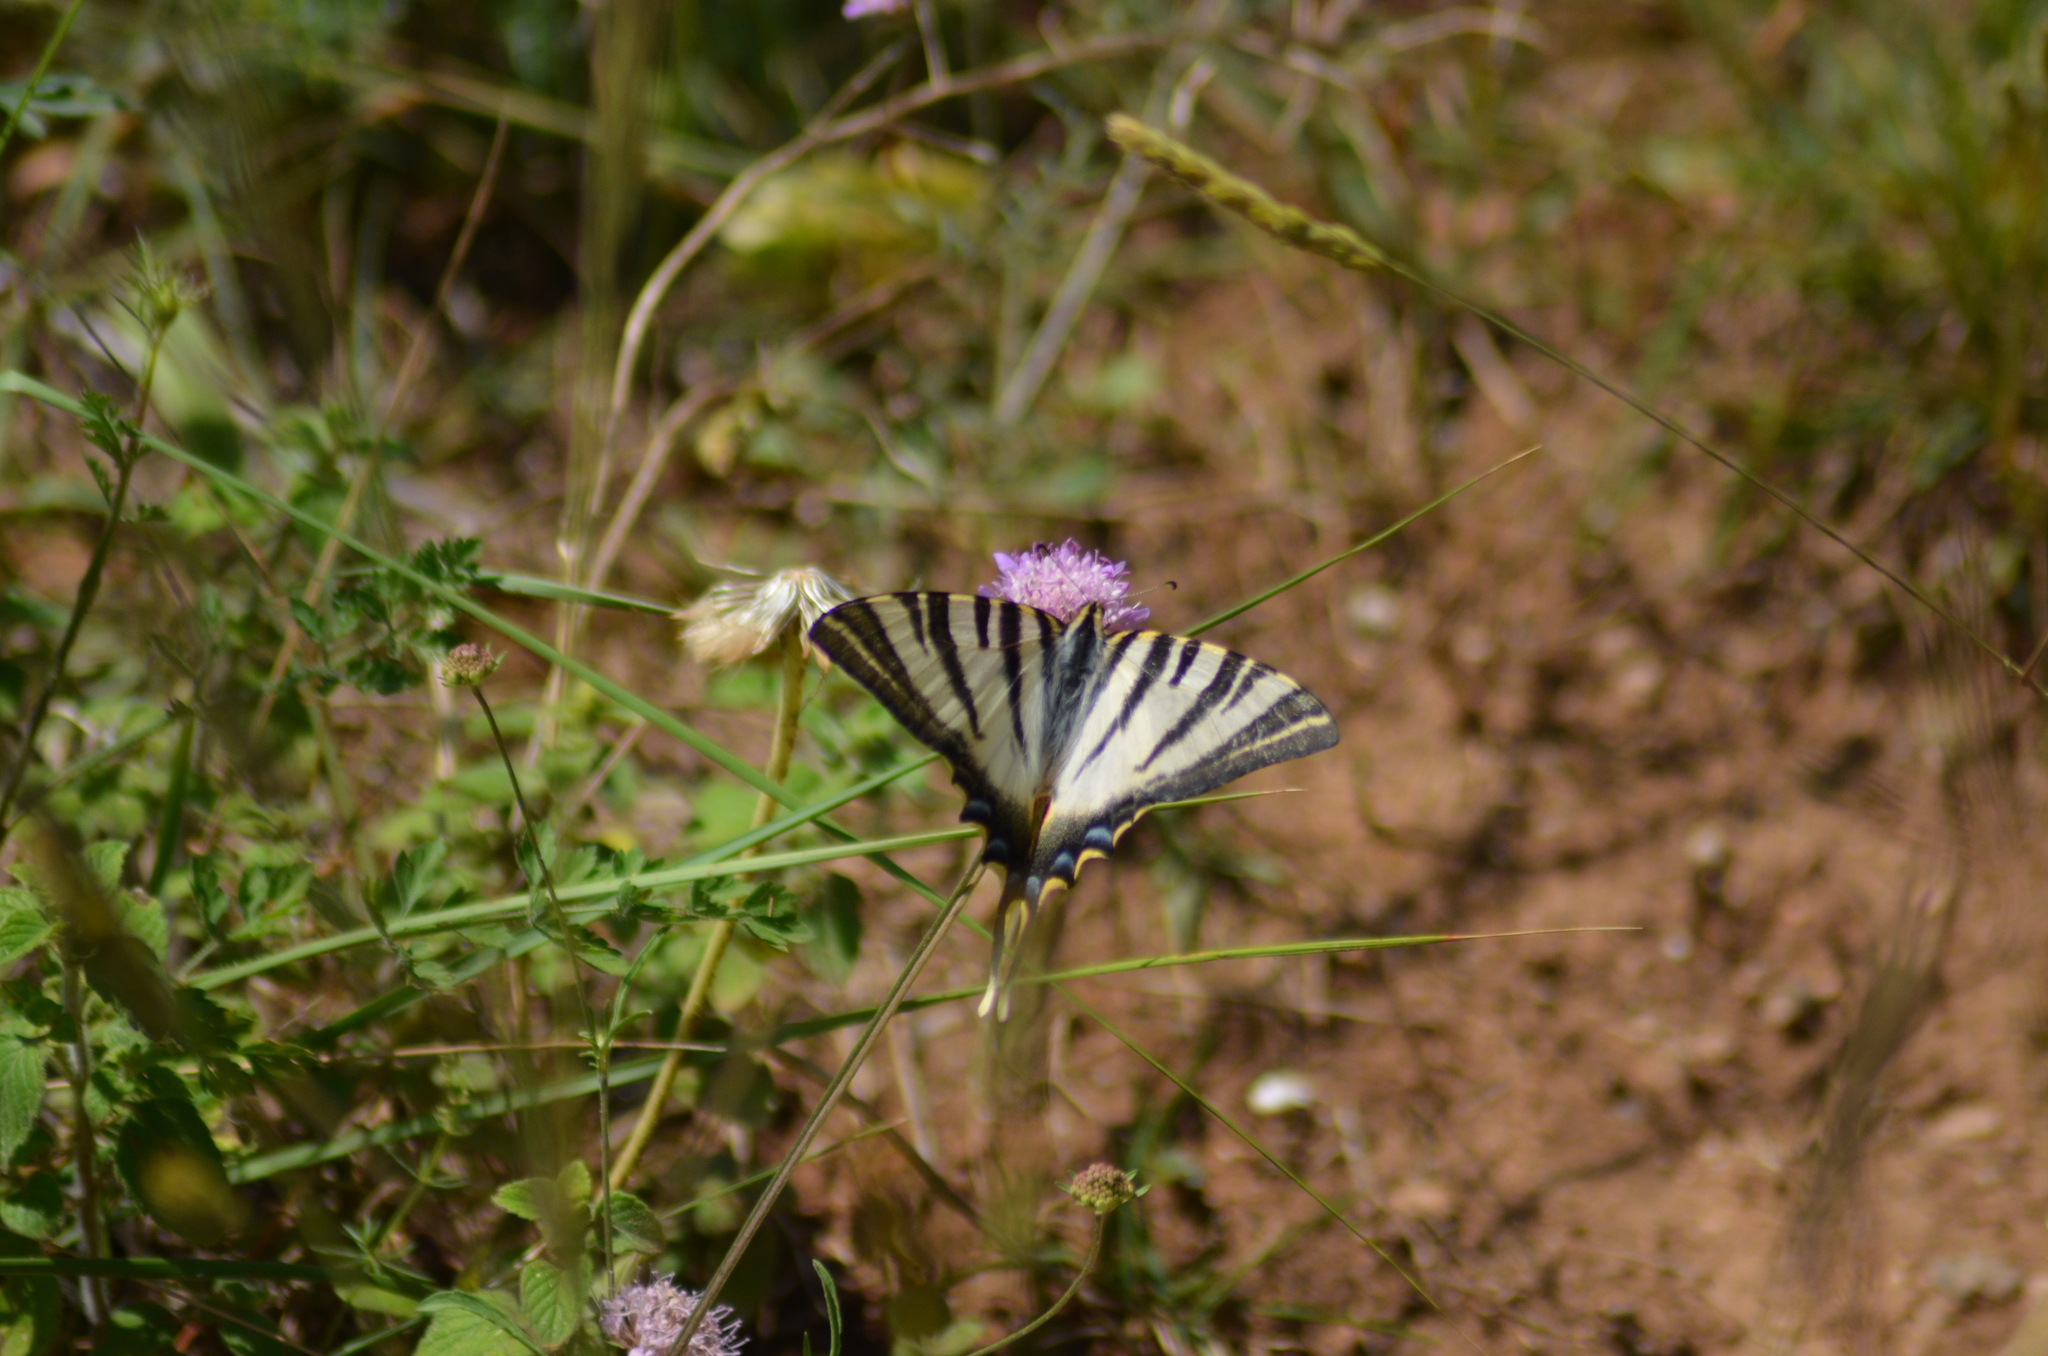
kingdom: Animalia
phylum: Arthropoda
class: Insecta
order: Lepidoptera
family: Papilionidae
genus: Iphiclides
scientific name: Iphiclides feisthamelii
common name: Iberian scarce swallowtail
